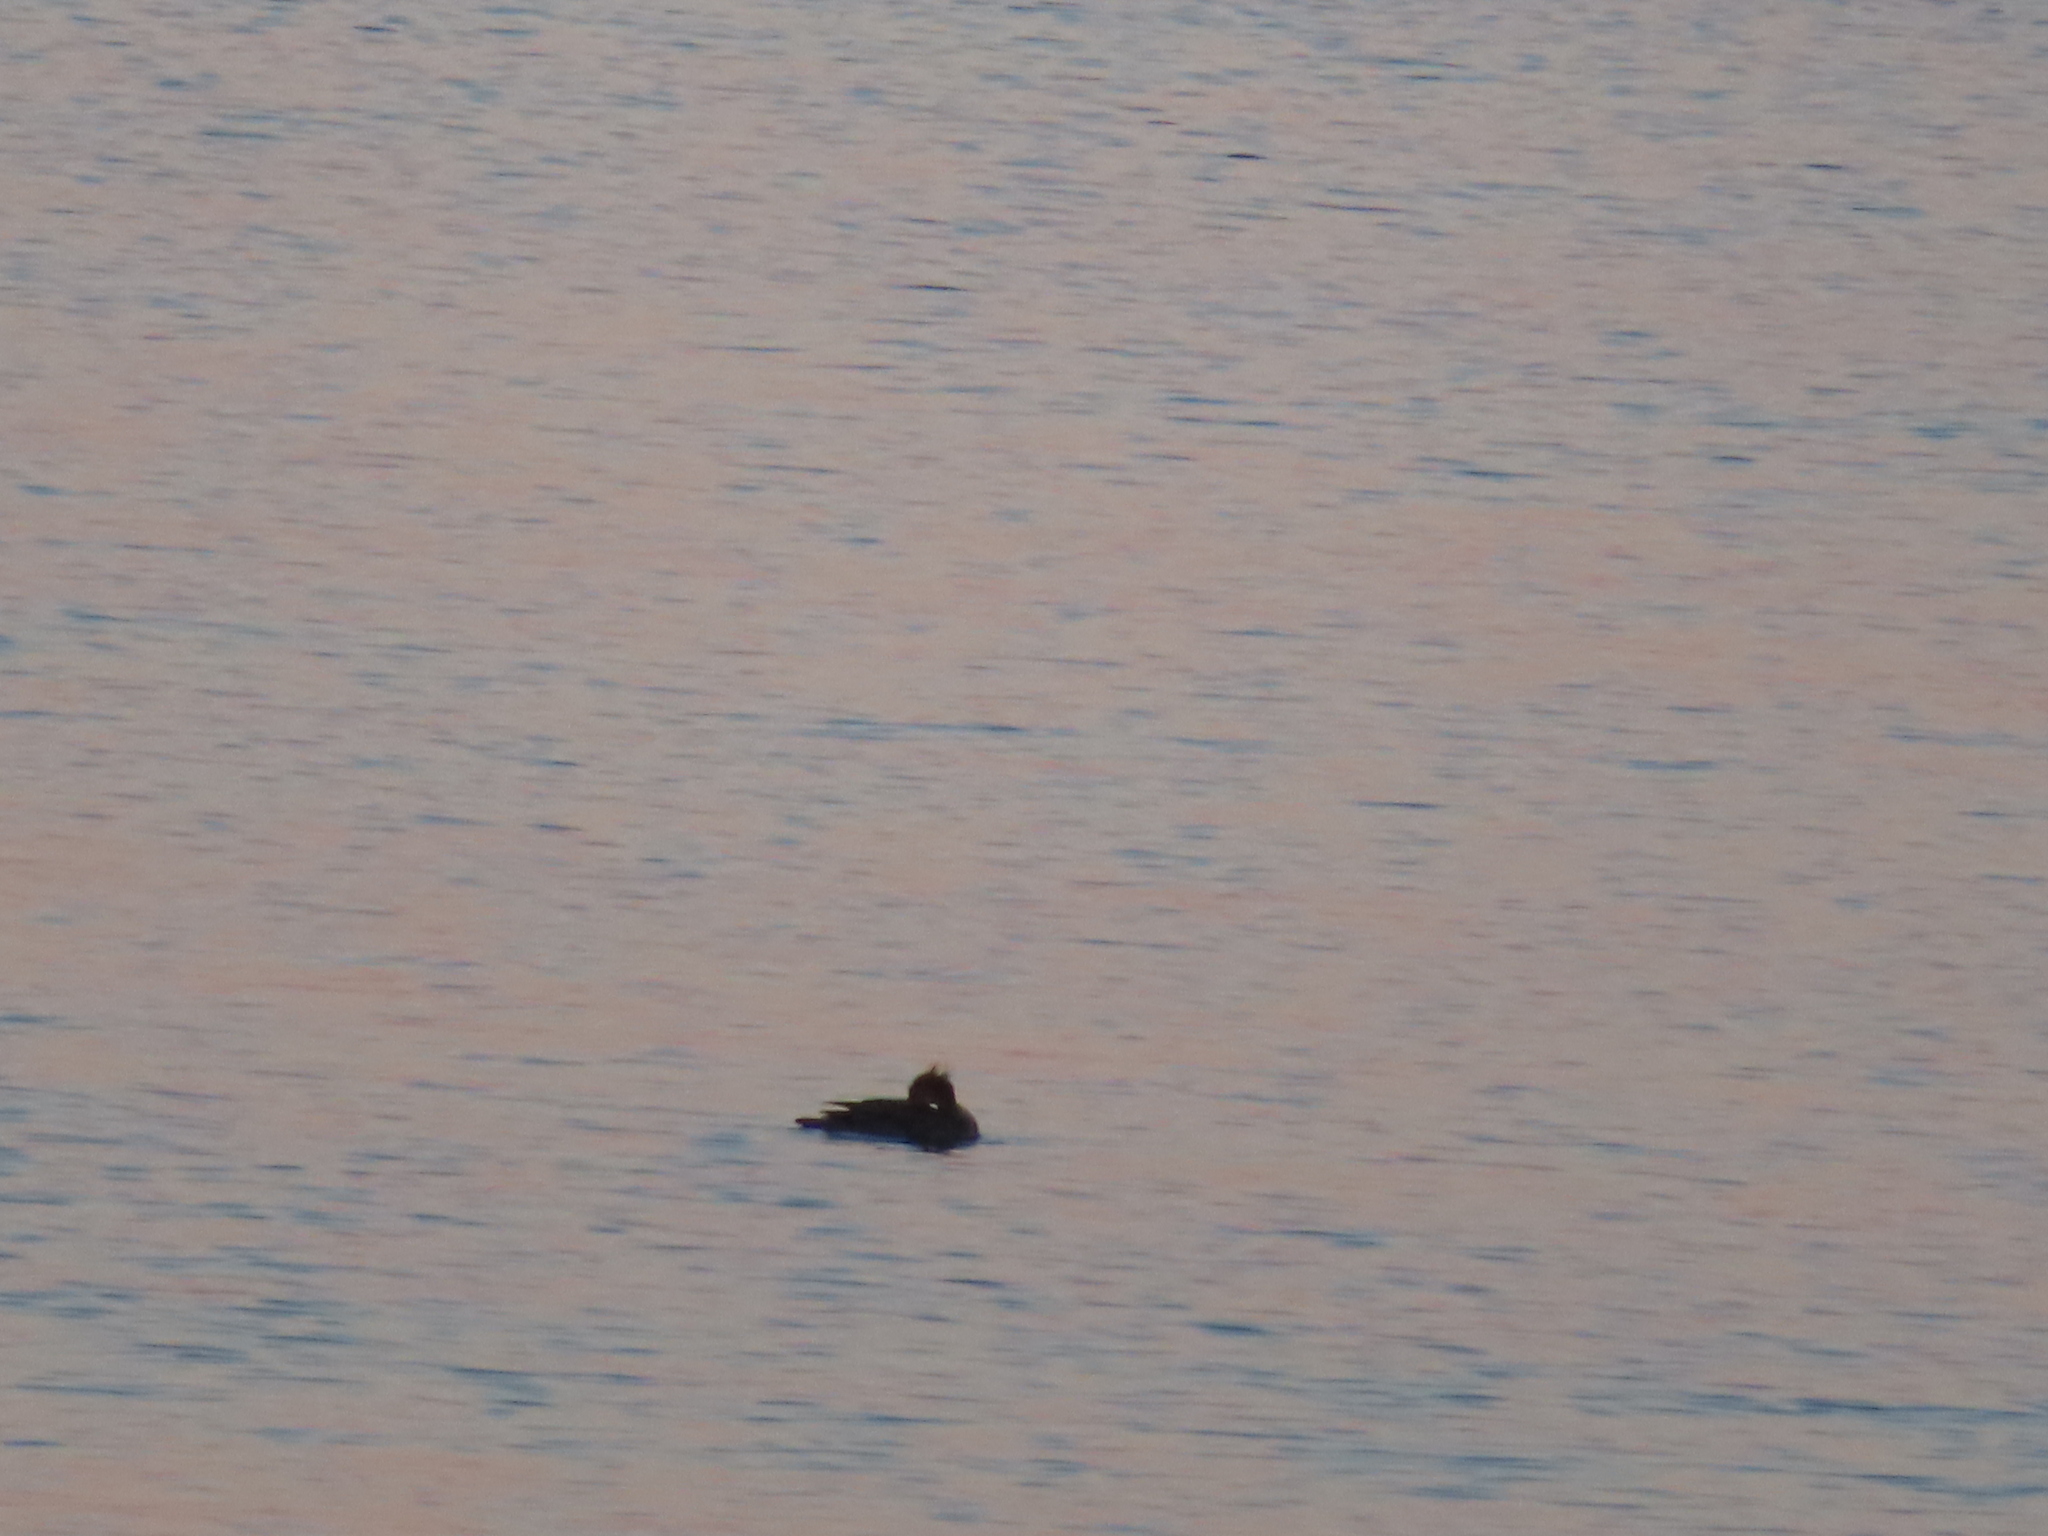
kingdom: Animalia
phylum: Chordata
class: Aves
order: Anseriformes
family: Anatidae
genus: Mergus
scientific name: Mergus serrator
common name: Red-breasted merganser
